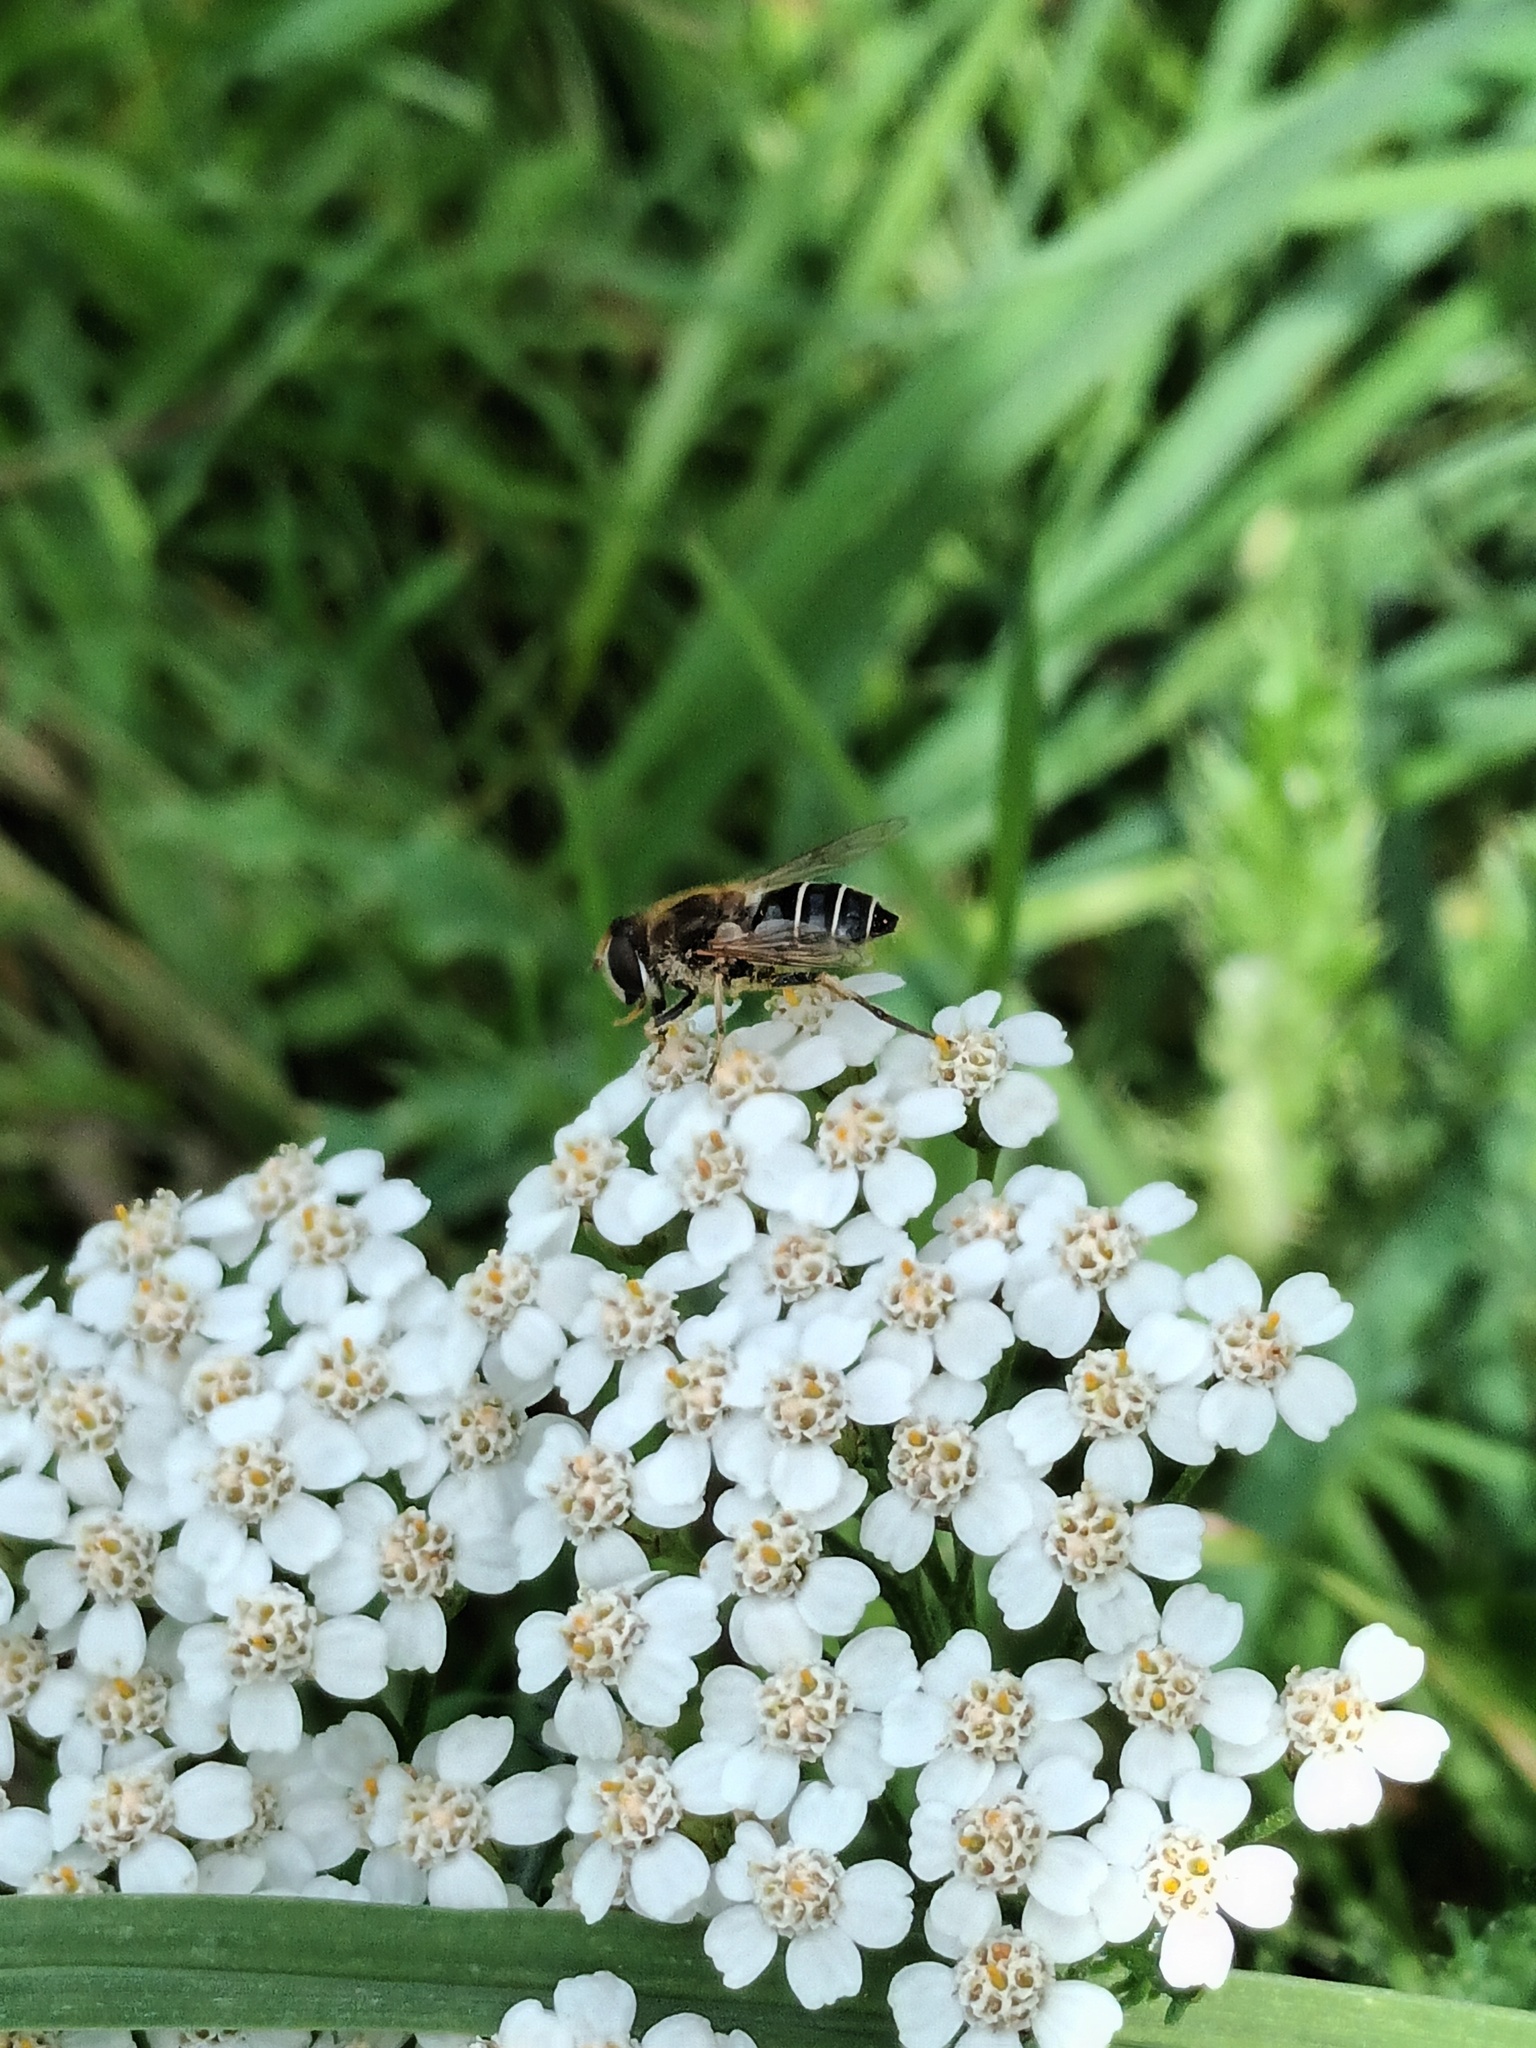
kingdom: Animalia
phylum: Arthropoda
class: Insecta
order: Diptera
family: Syrphidae
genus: Eristalis
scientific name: Eristalis nemorum
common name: Orange-spined drone fly
